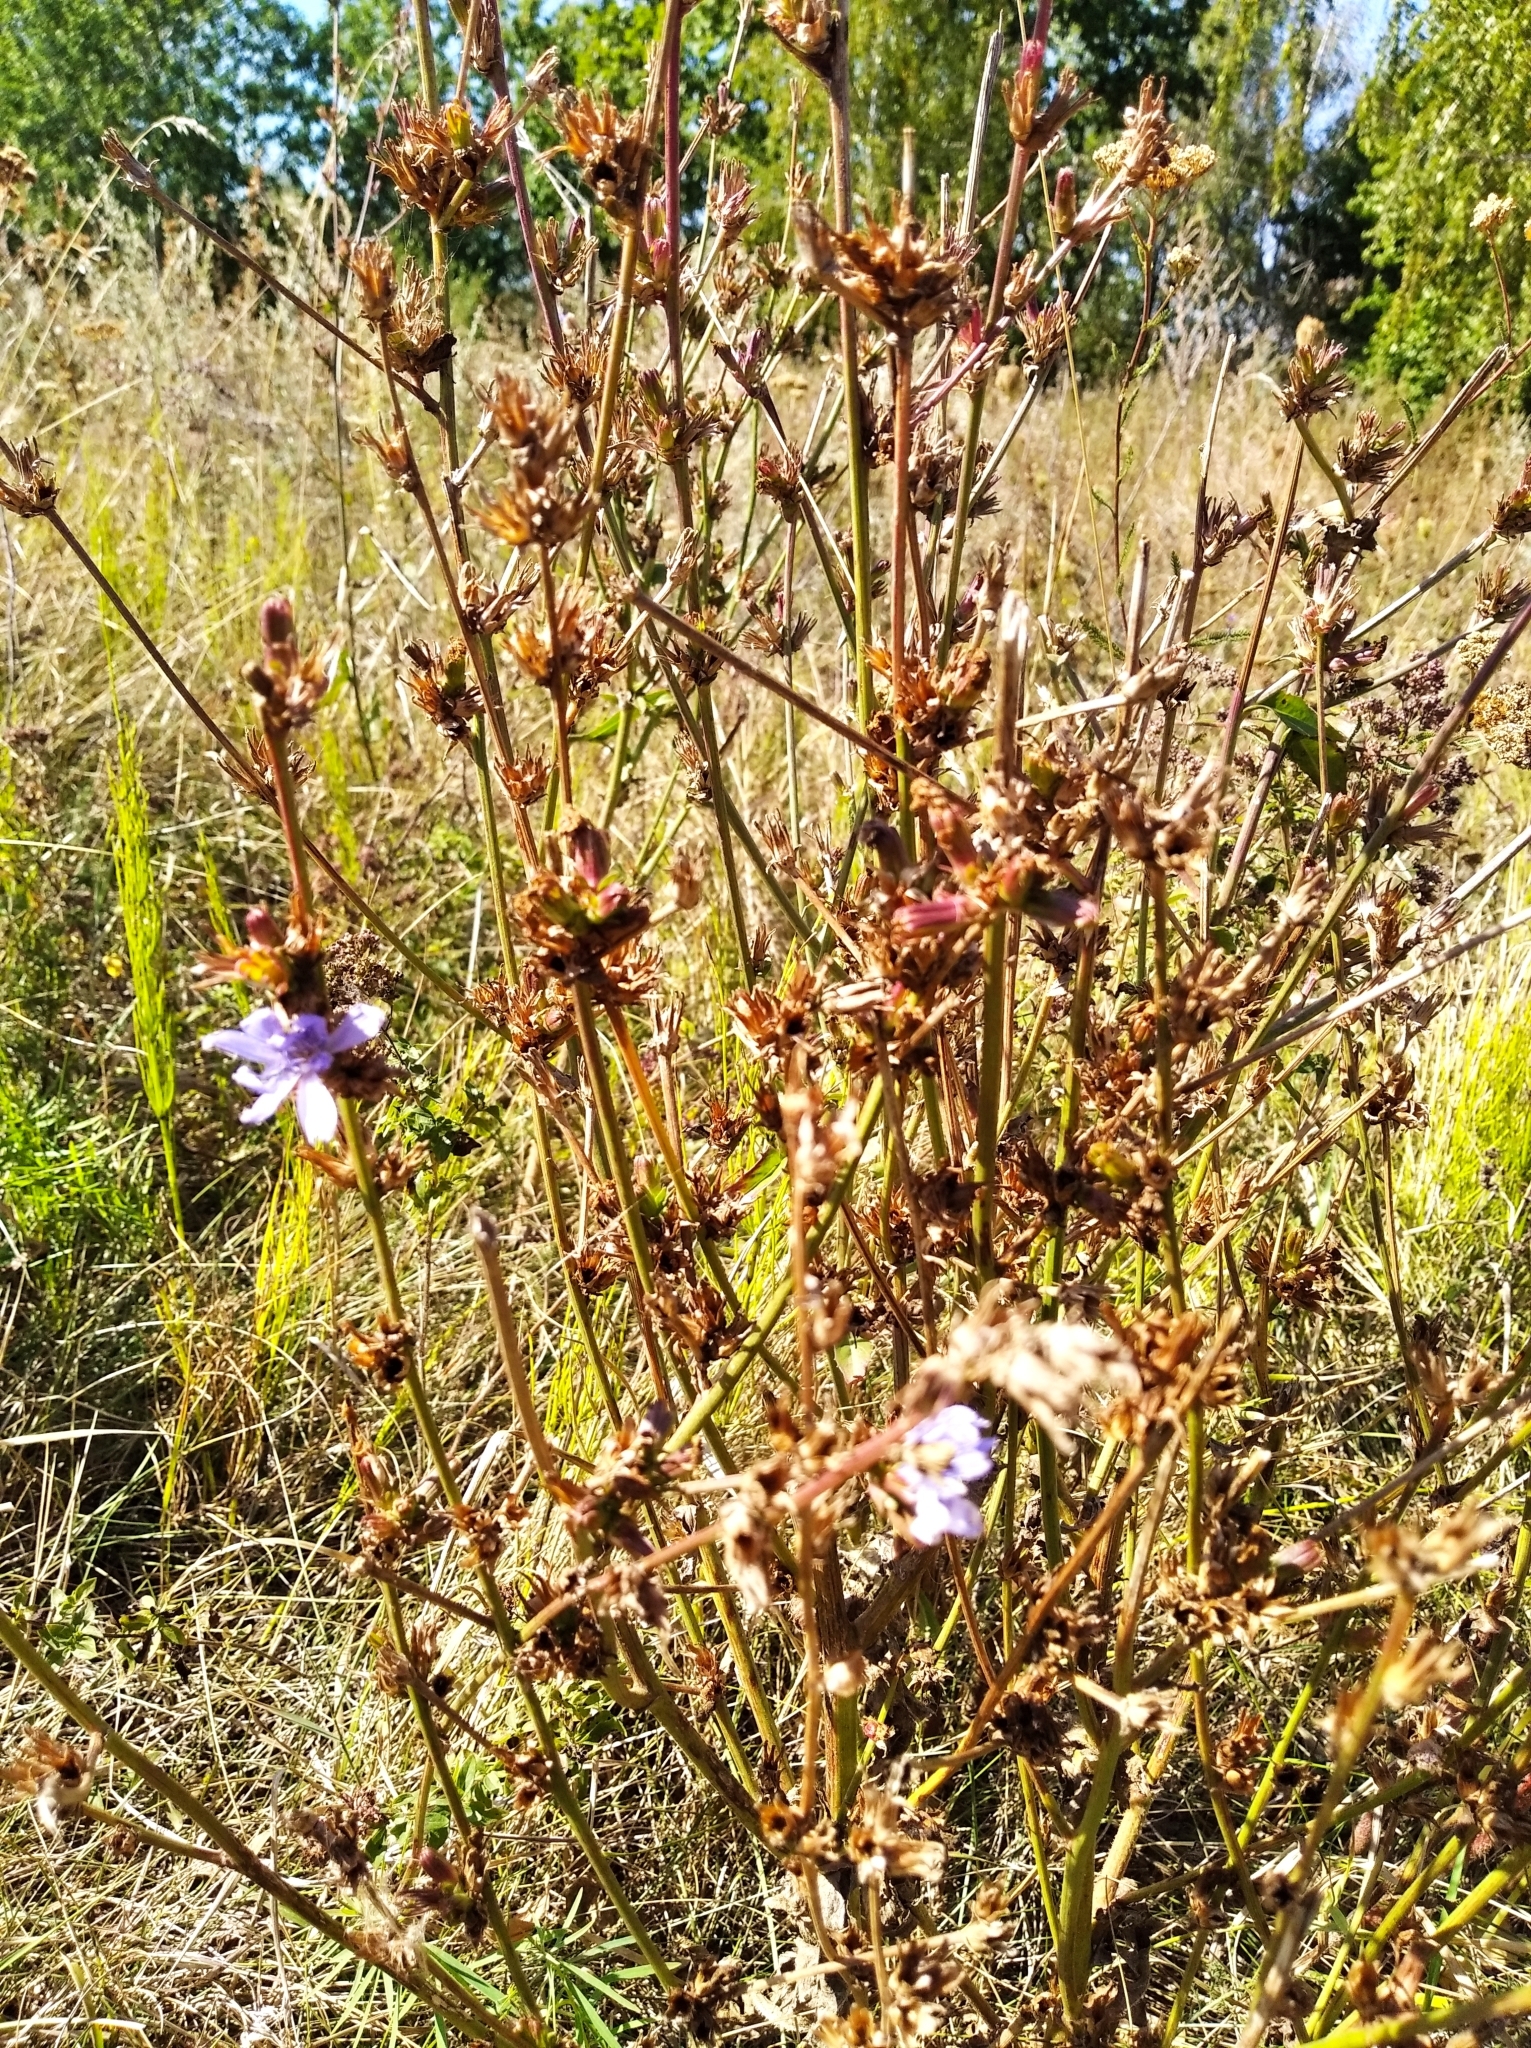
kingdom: Plantae
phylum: Tracheophyta
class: Magnoliopsida
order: Asterales
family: Asteraceae
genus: Cichorium
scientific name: Cichorium intybus
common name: Chicory
